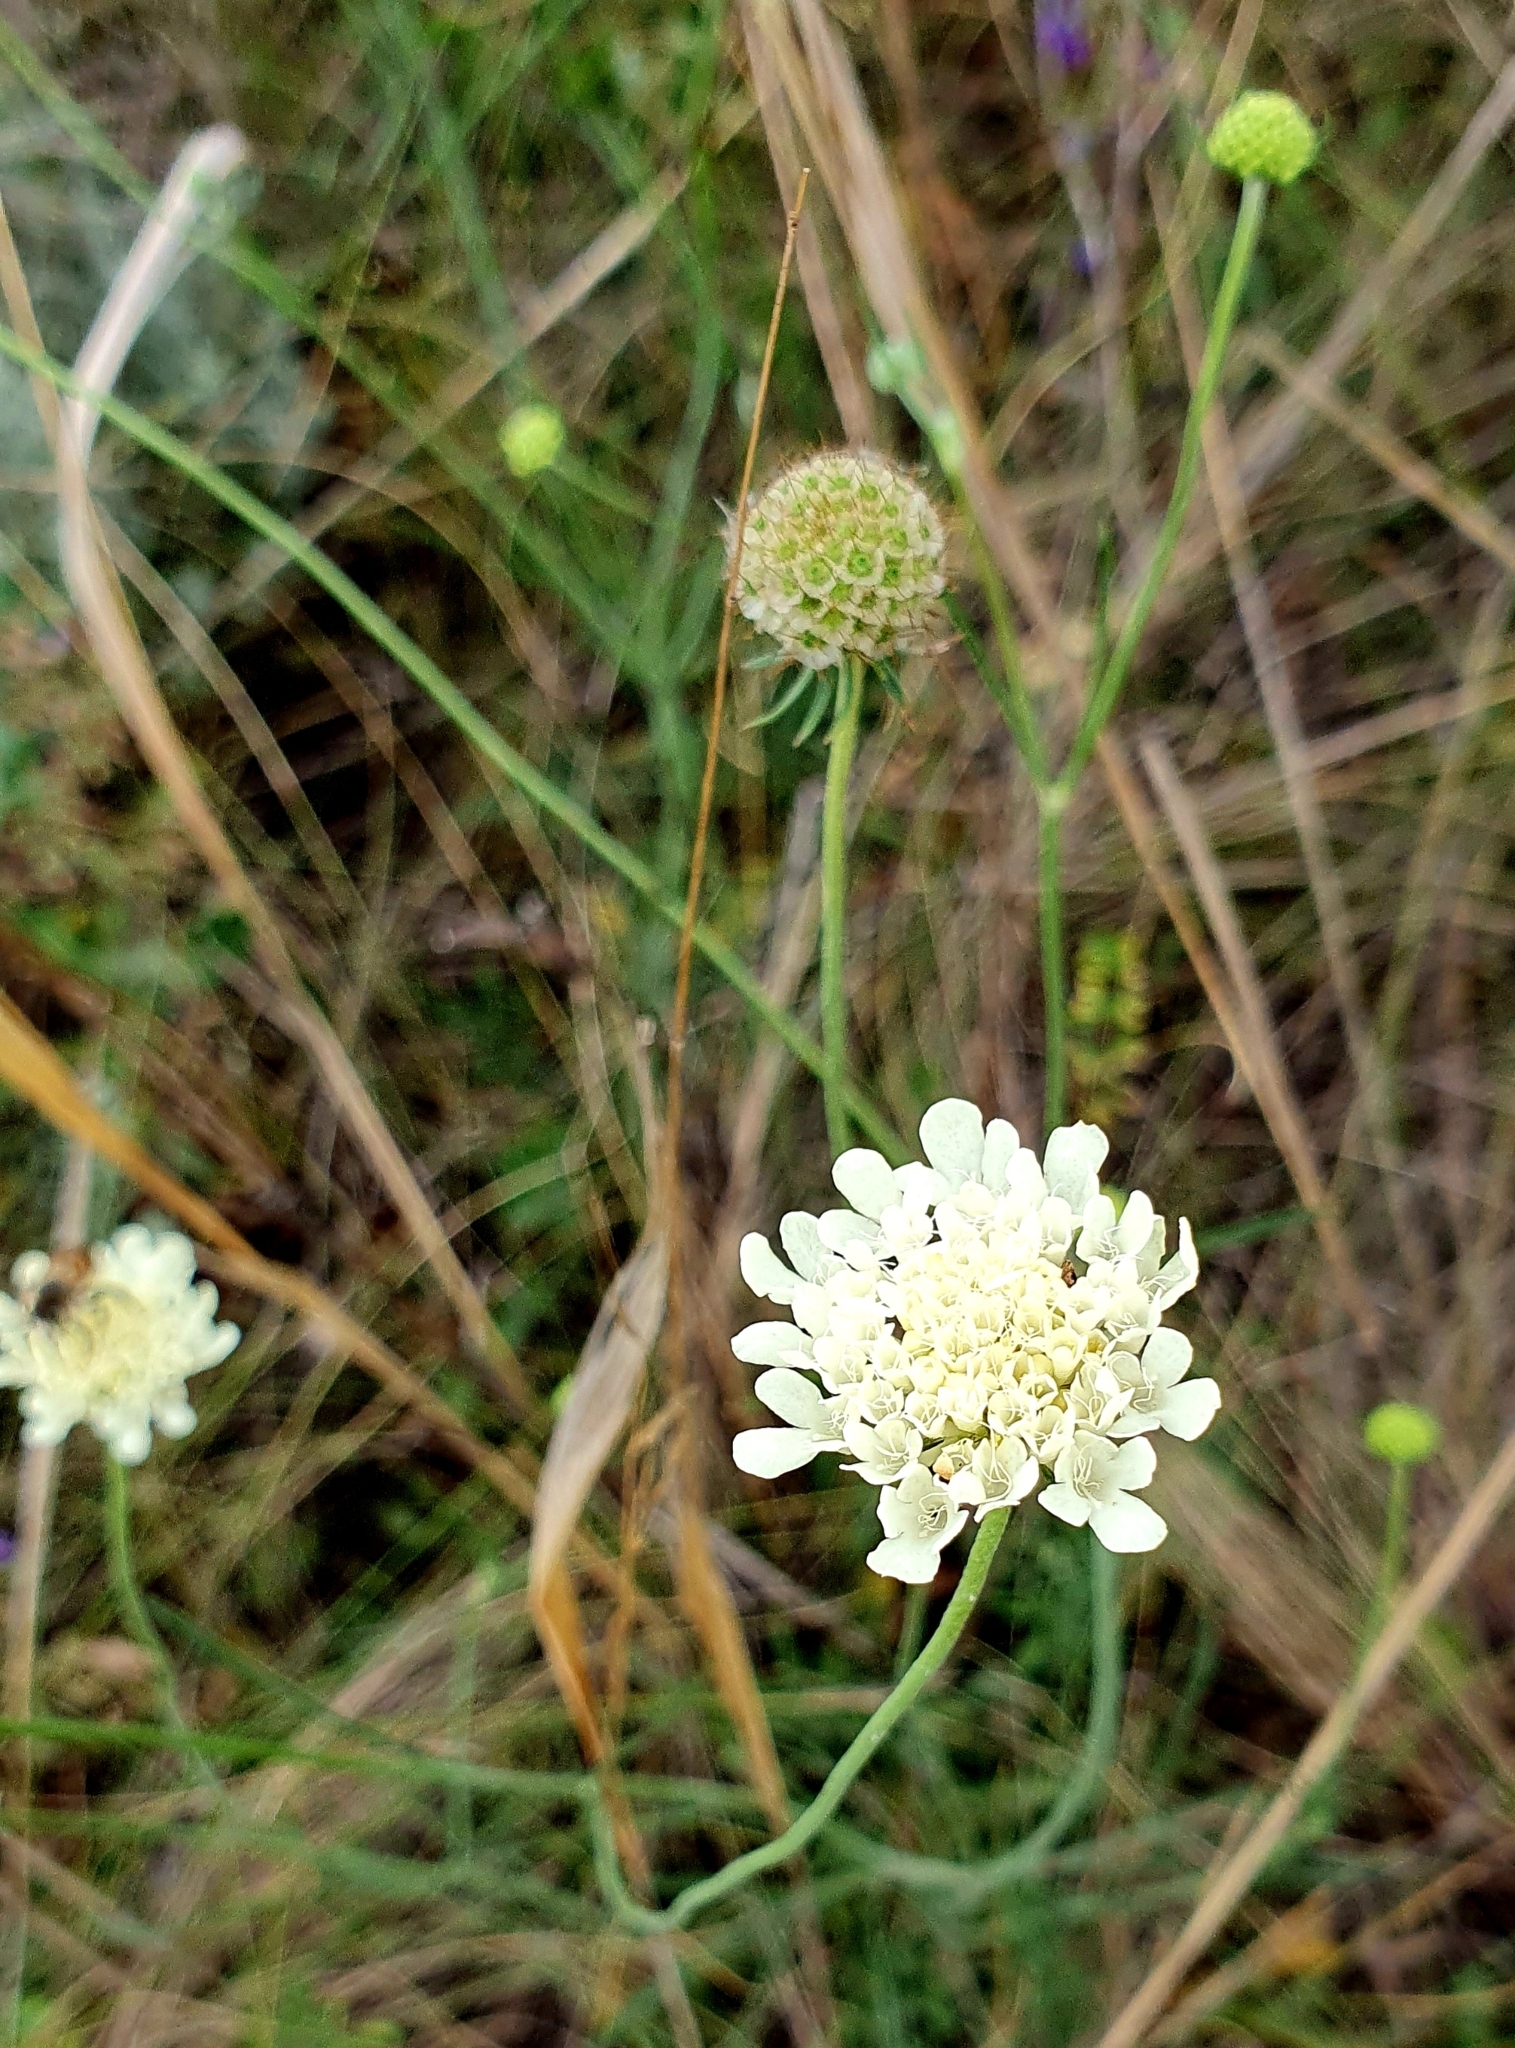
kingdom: Plantae
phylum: Tracheophyta
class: Magnoliopsida
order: Dipsacales
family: Caprifoliaceae
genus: Scabiosa
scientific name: Scabiosa ochroleuca
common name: Cream pincushions
